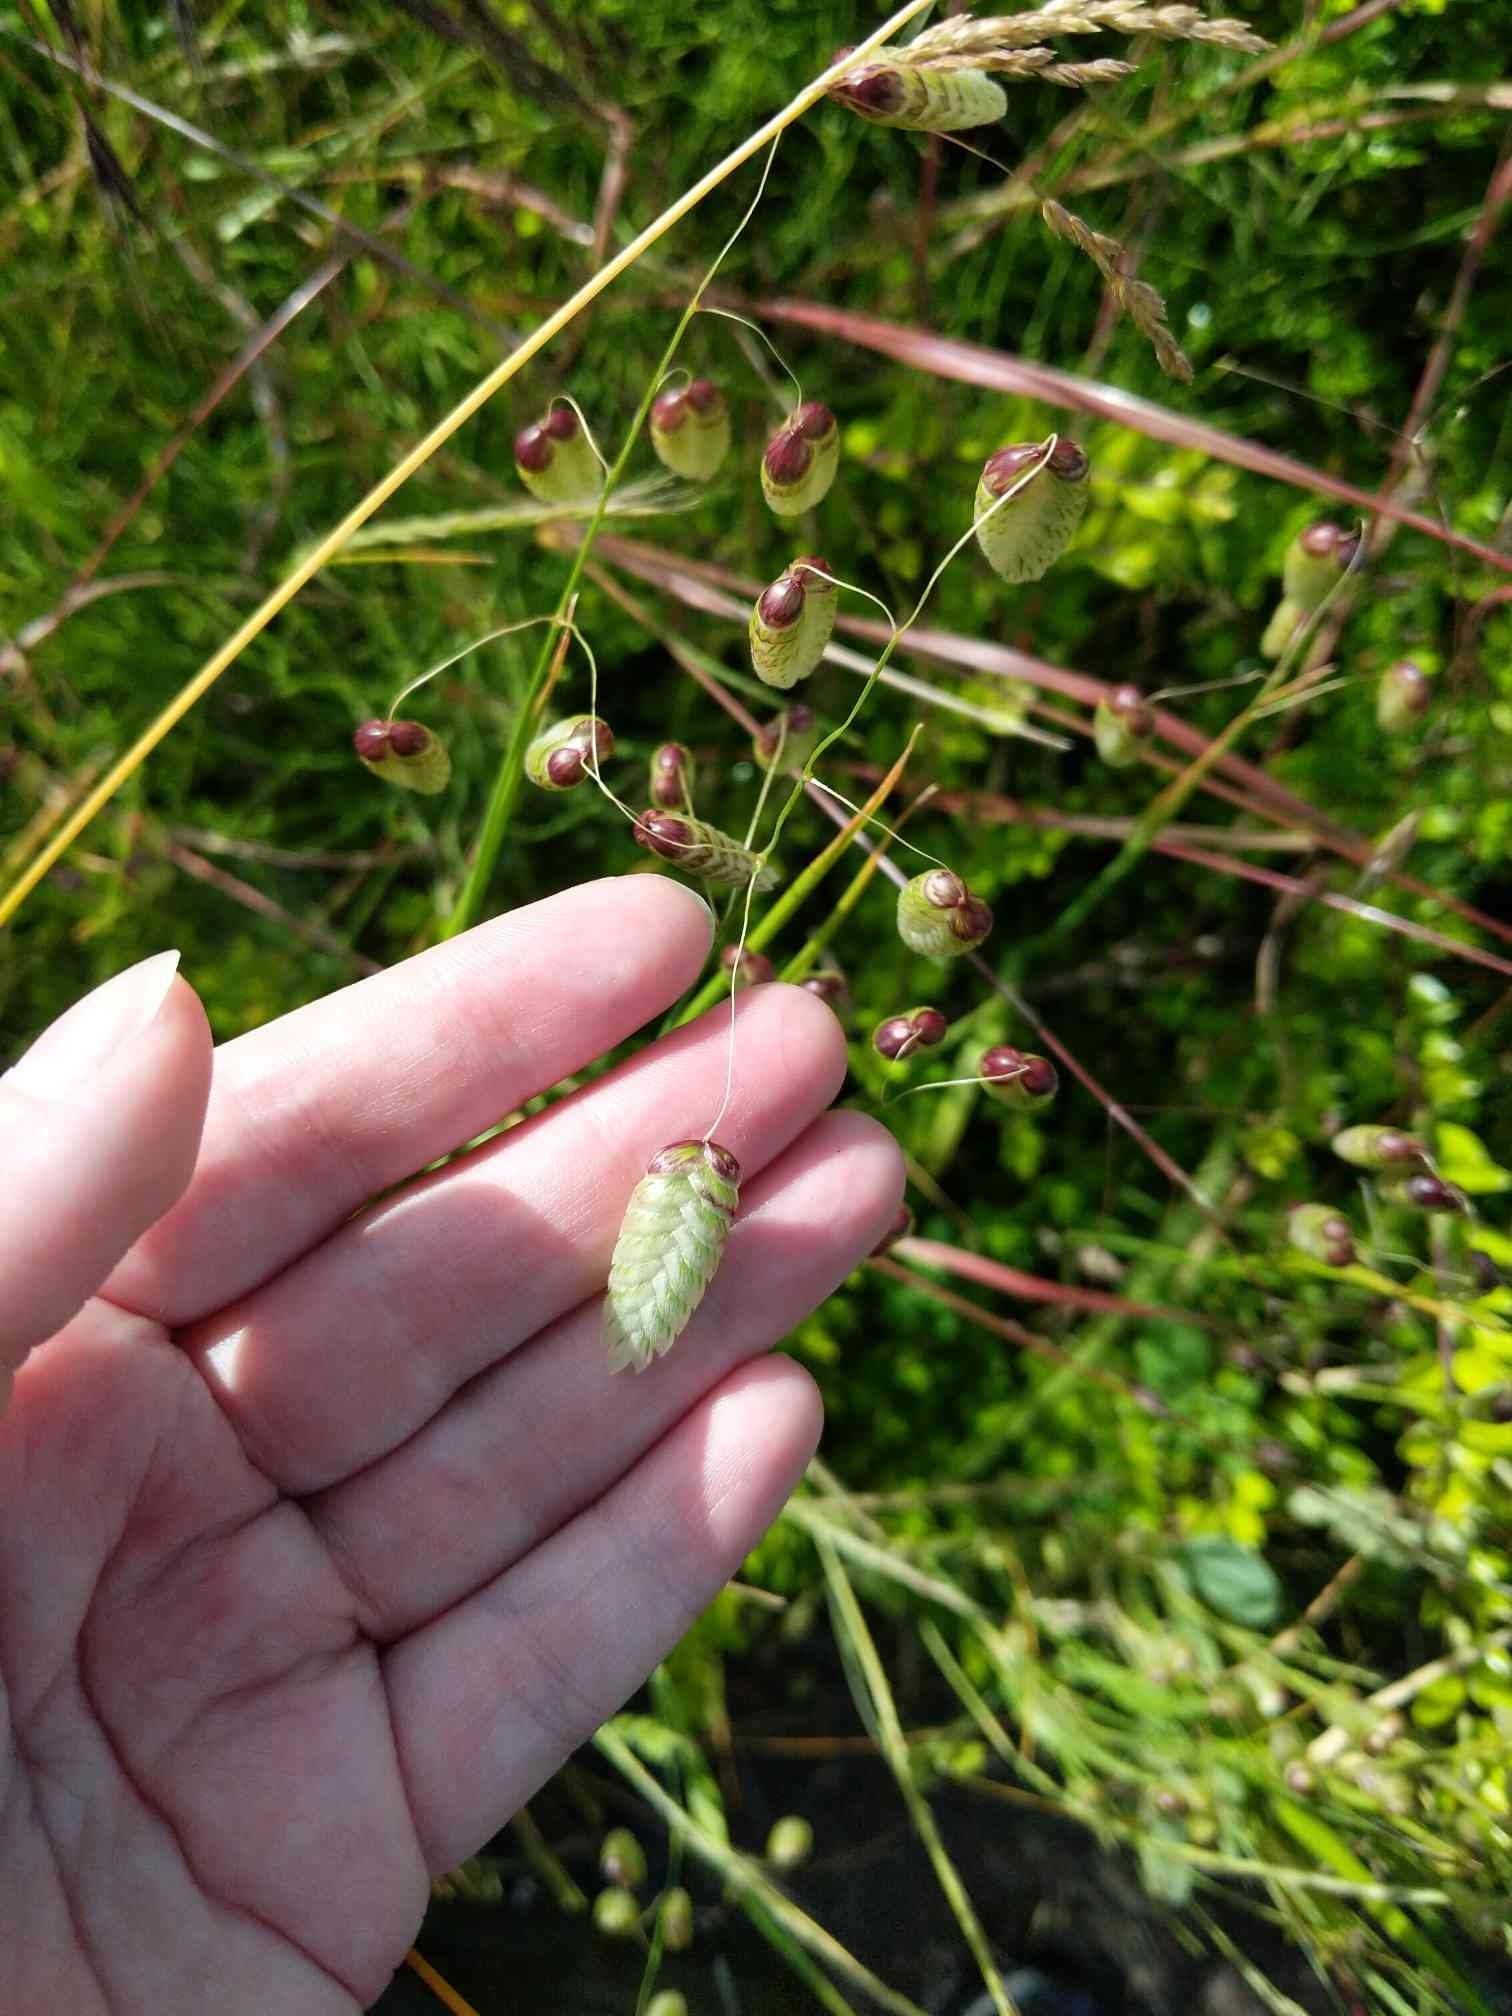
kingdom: Plantae
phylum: Tracheophyta
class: Liliopsida
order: Poales
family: Poaceae
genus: Briza
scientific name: Briza maxima
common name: Big quakinggrass
